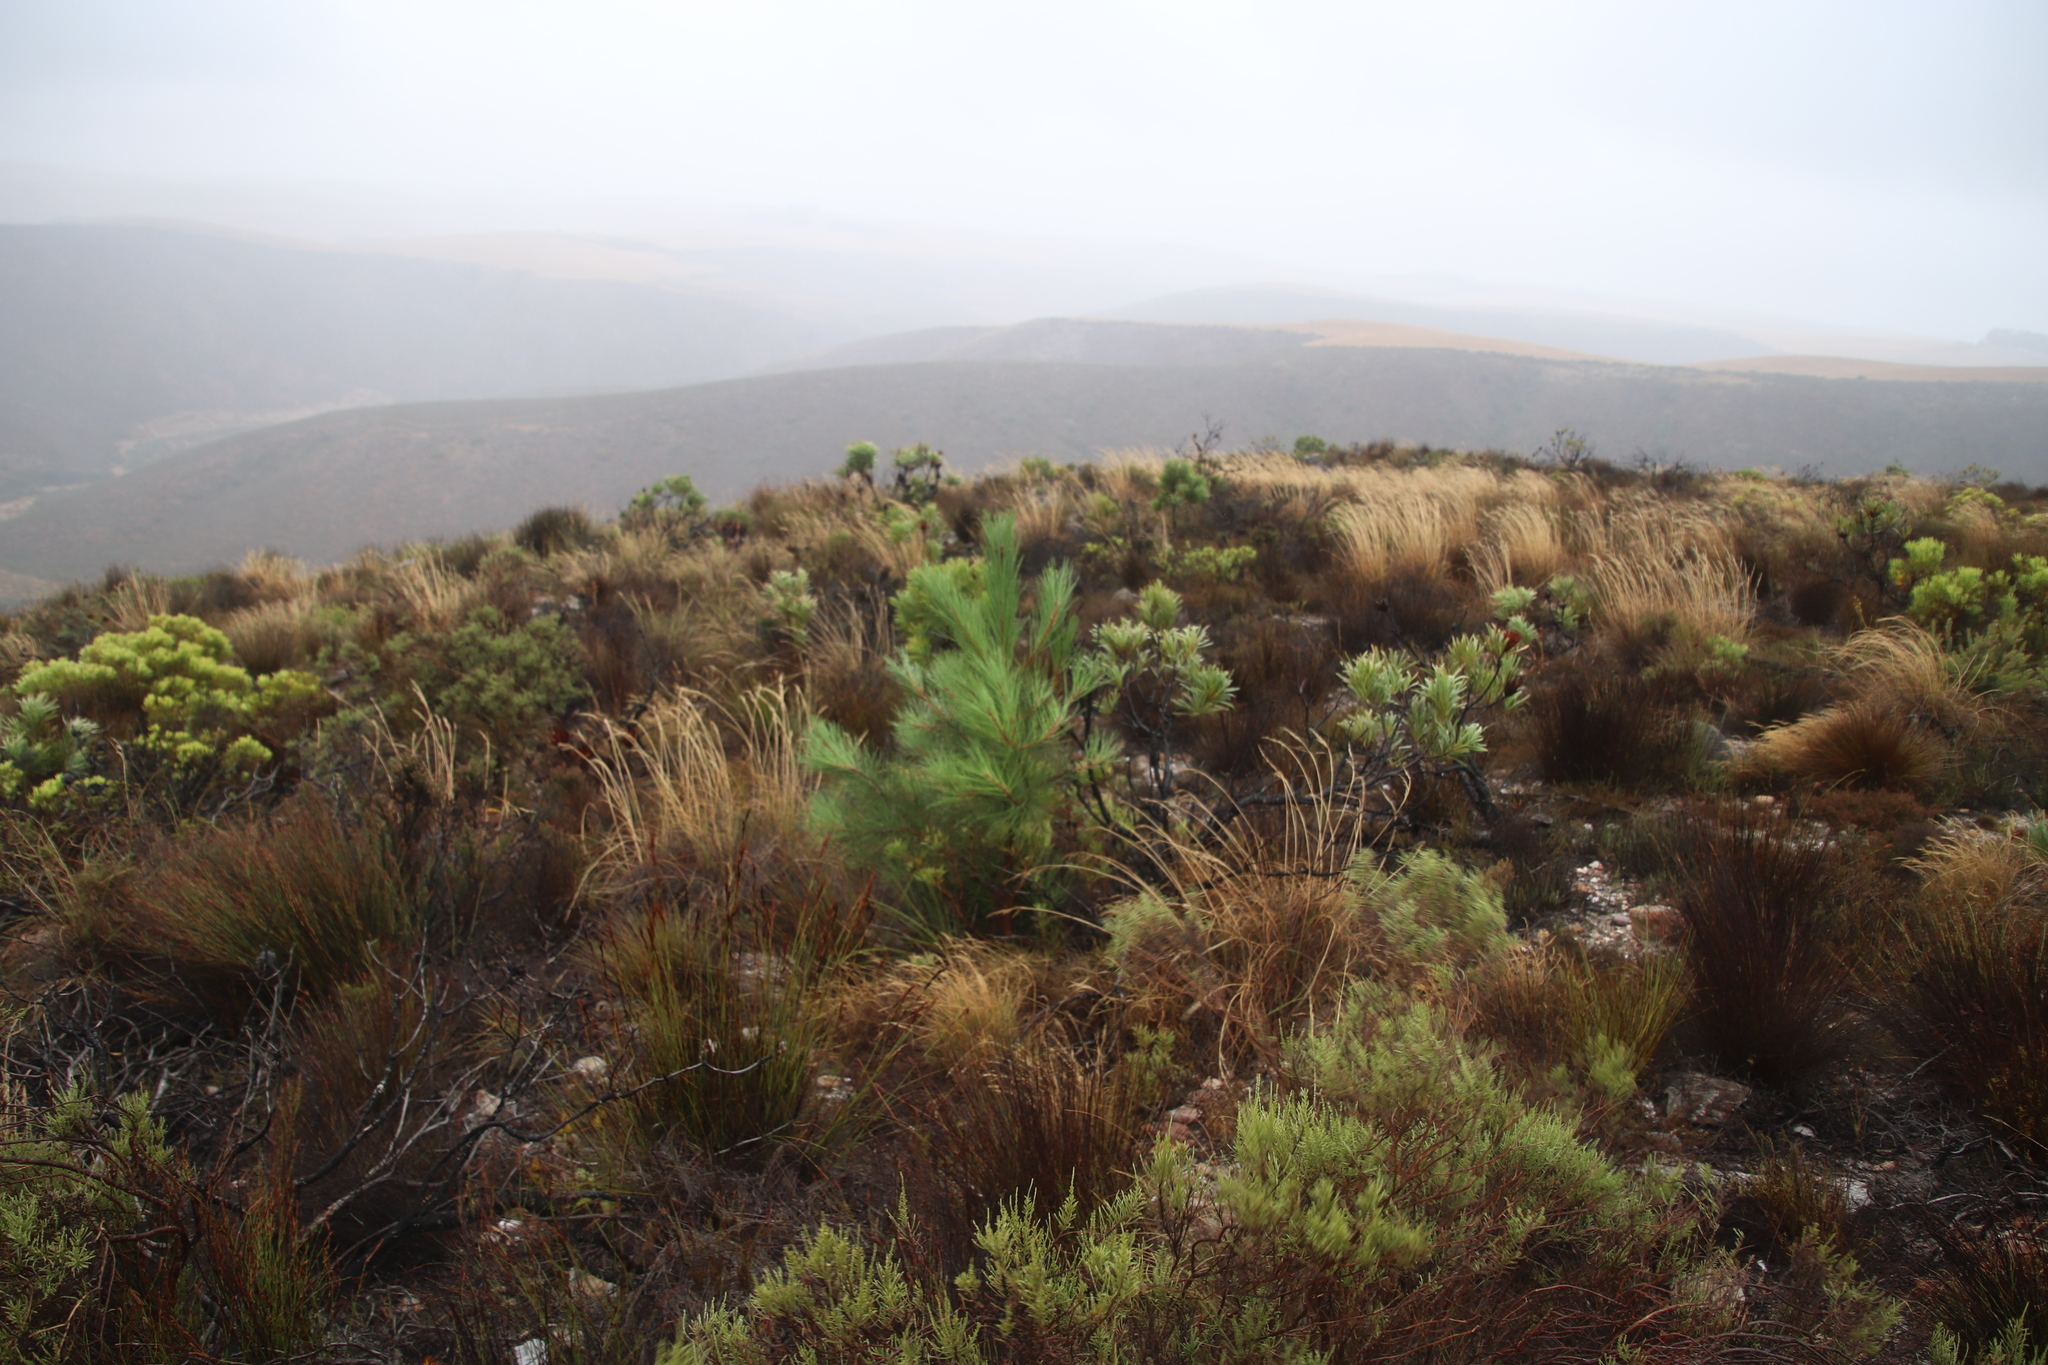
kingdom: Plantae
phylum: Tracheophyta
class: Pinopsida
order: Pinales
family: Pinaceae
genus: Pinus
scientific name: Pinus pinaster
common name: Maritime pine
